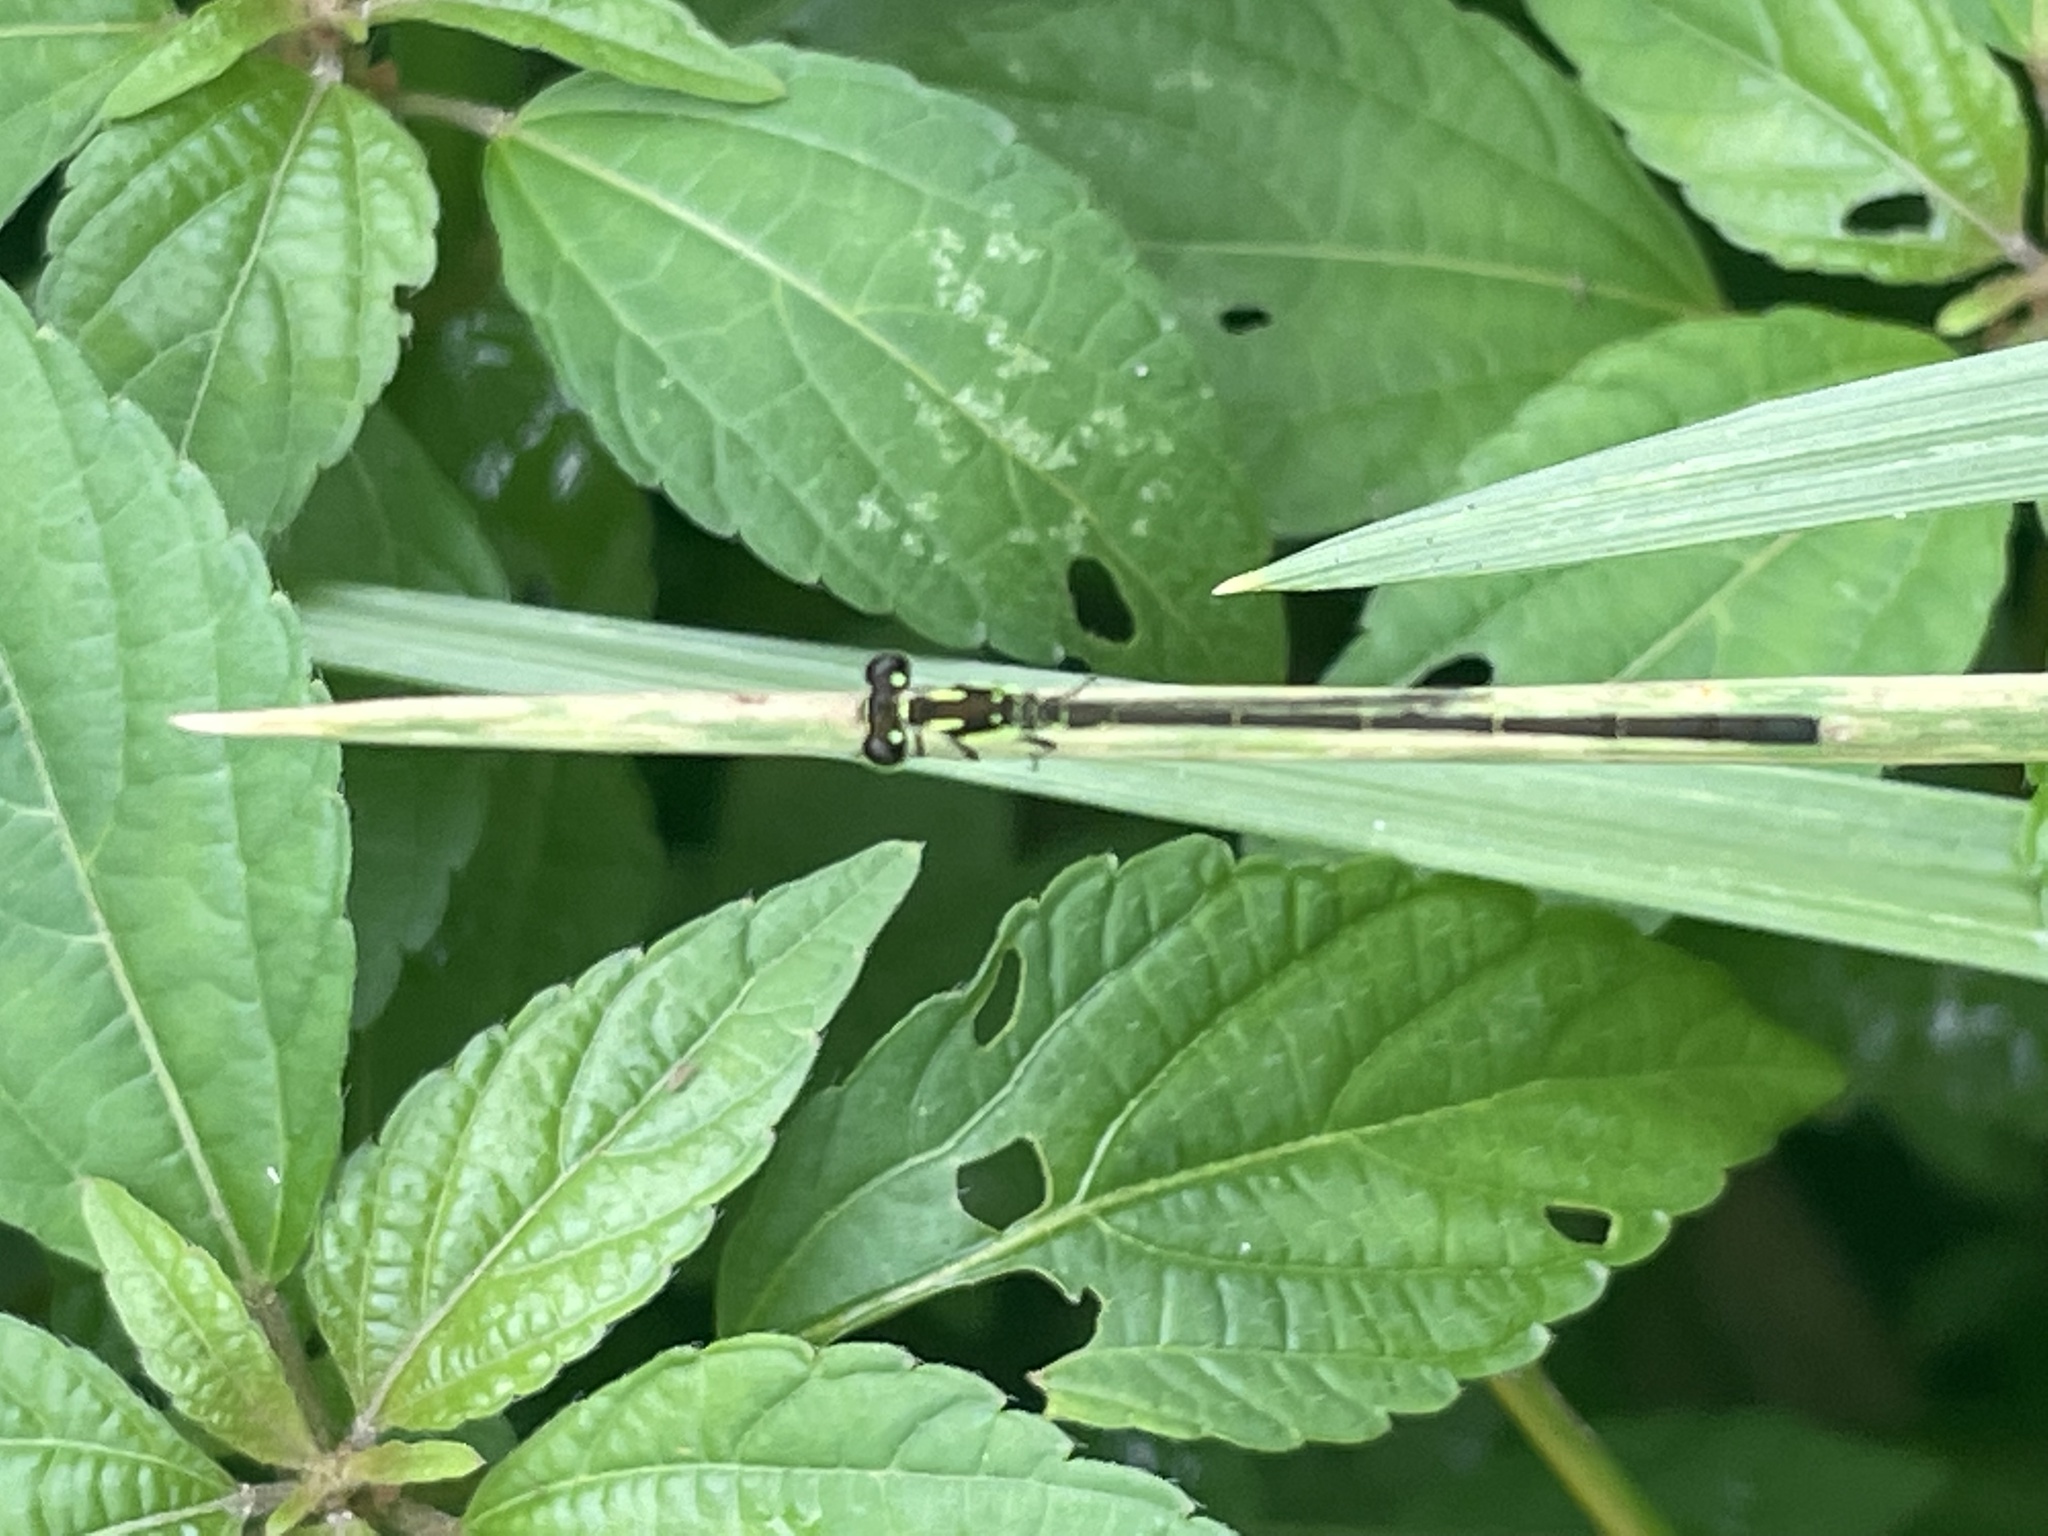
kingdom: Animalia
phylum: Arthropoda
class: Insecta
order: Odonata
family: Coenagrionidae
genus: Ischnura
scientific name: Ischnura posita
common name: Fragile forktail
